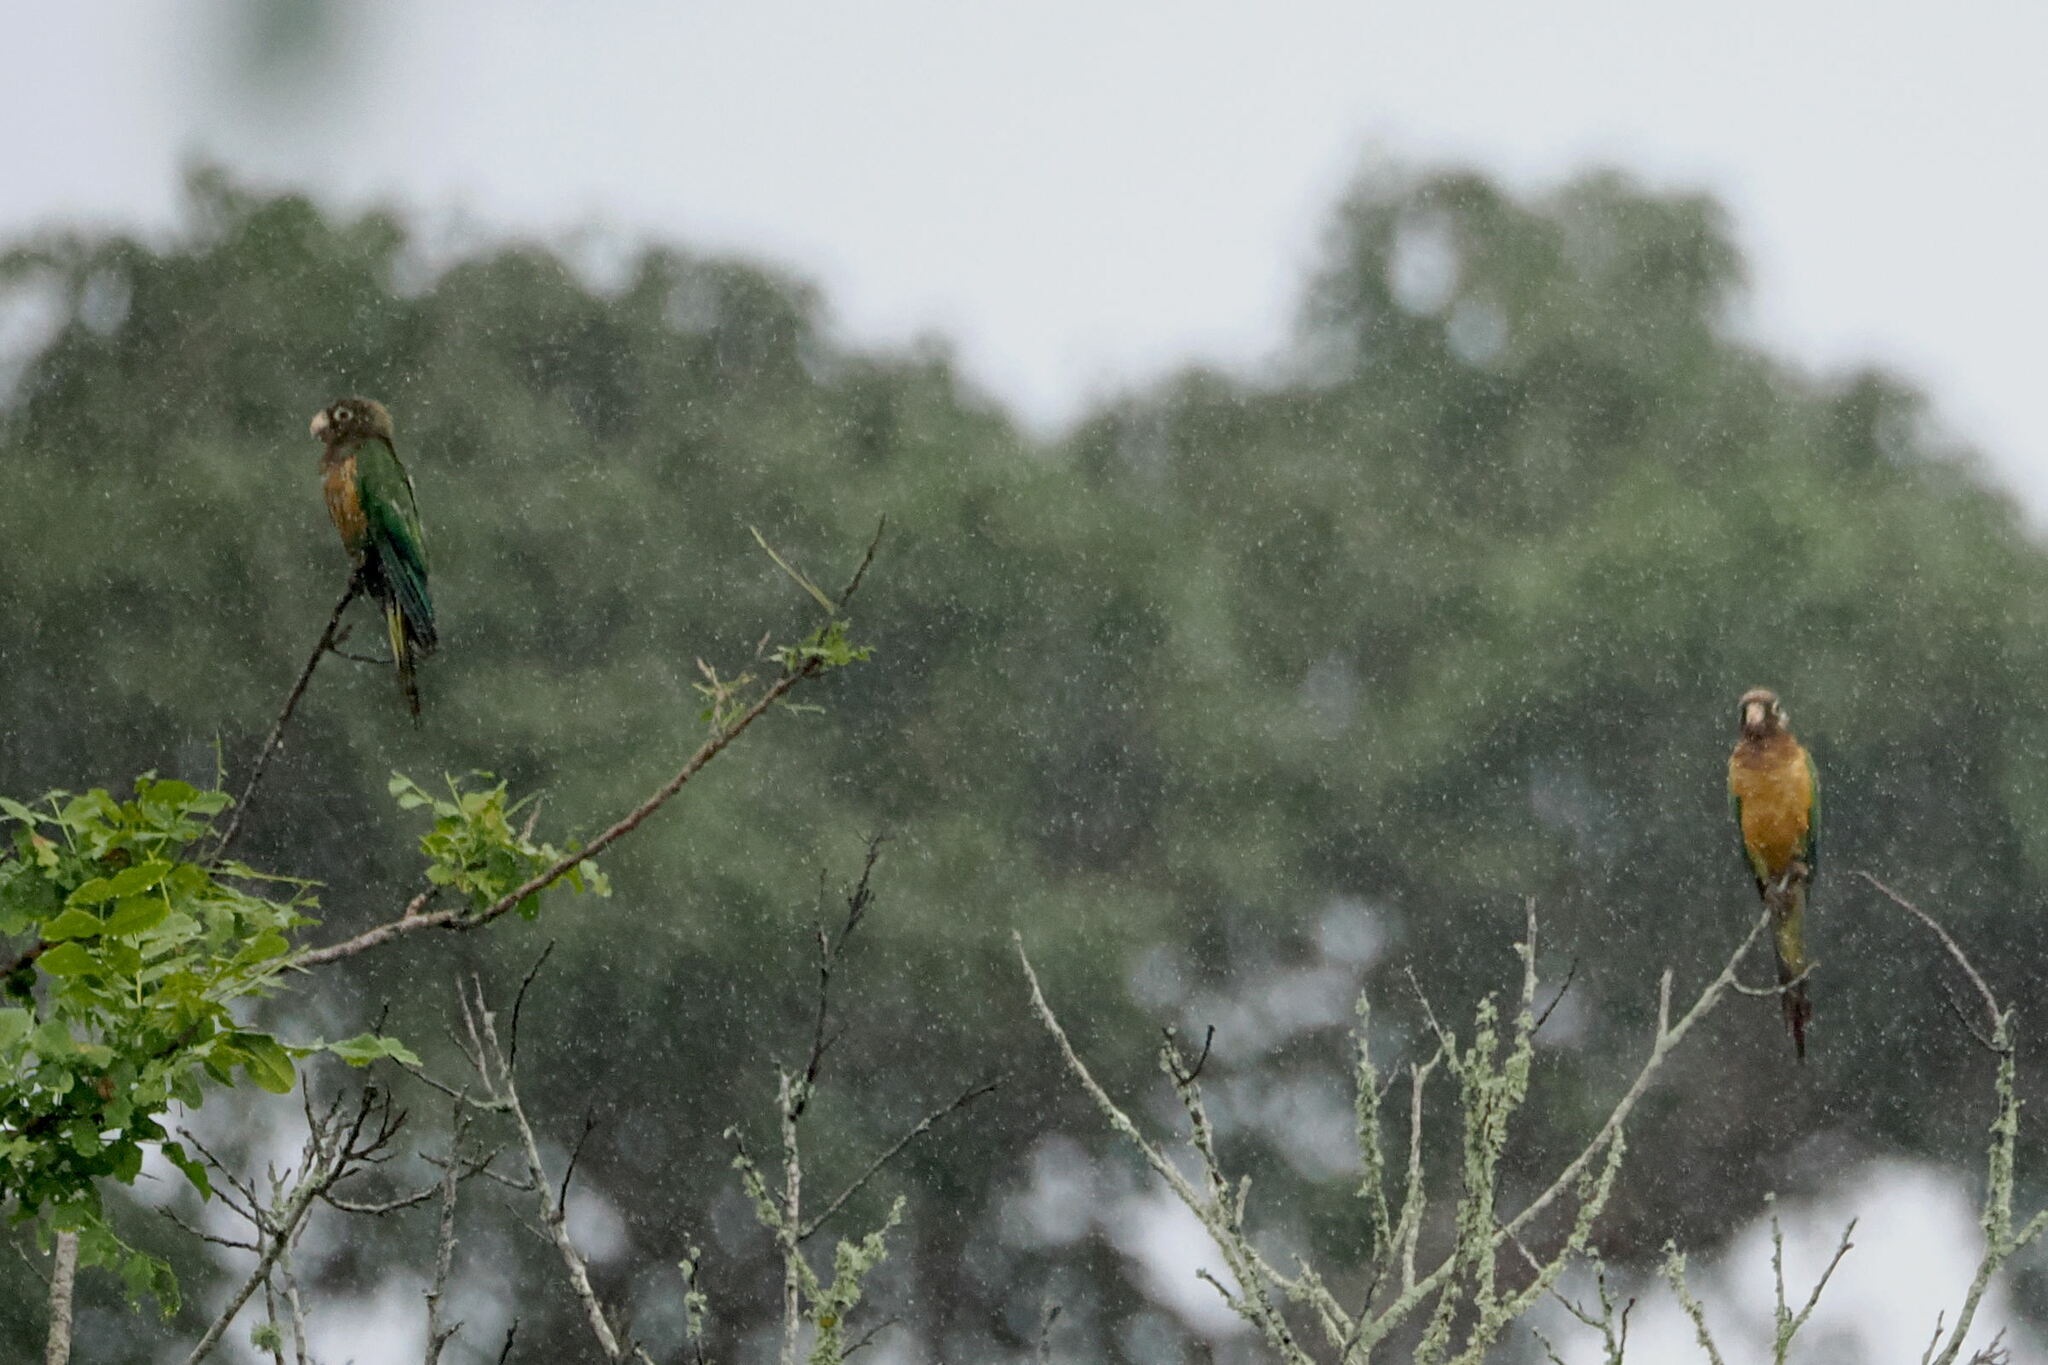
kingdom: Animalia
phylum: Chordata
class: Aves
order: Psittaciformes
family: Psittacidae
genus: Aratinga
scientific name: Aratinga cactorum
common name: Caatinga parakeet
